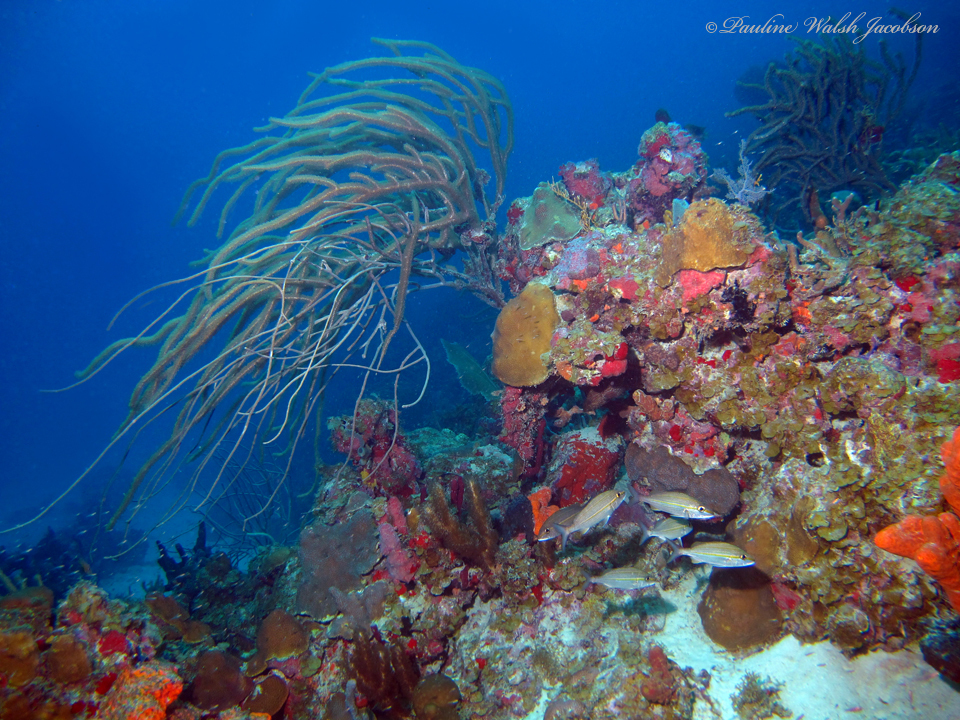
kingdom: Animalia
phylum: Chordata
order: Perciformes
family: Haemulidae
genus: Haemulon
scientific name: Haemulon aurolineatum
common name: Tomtate
